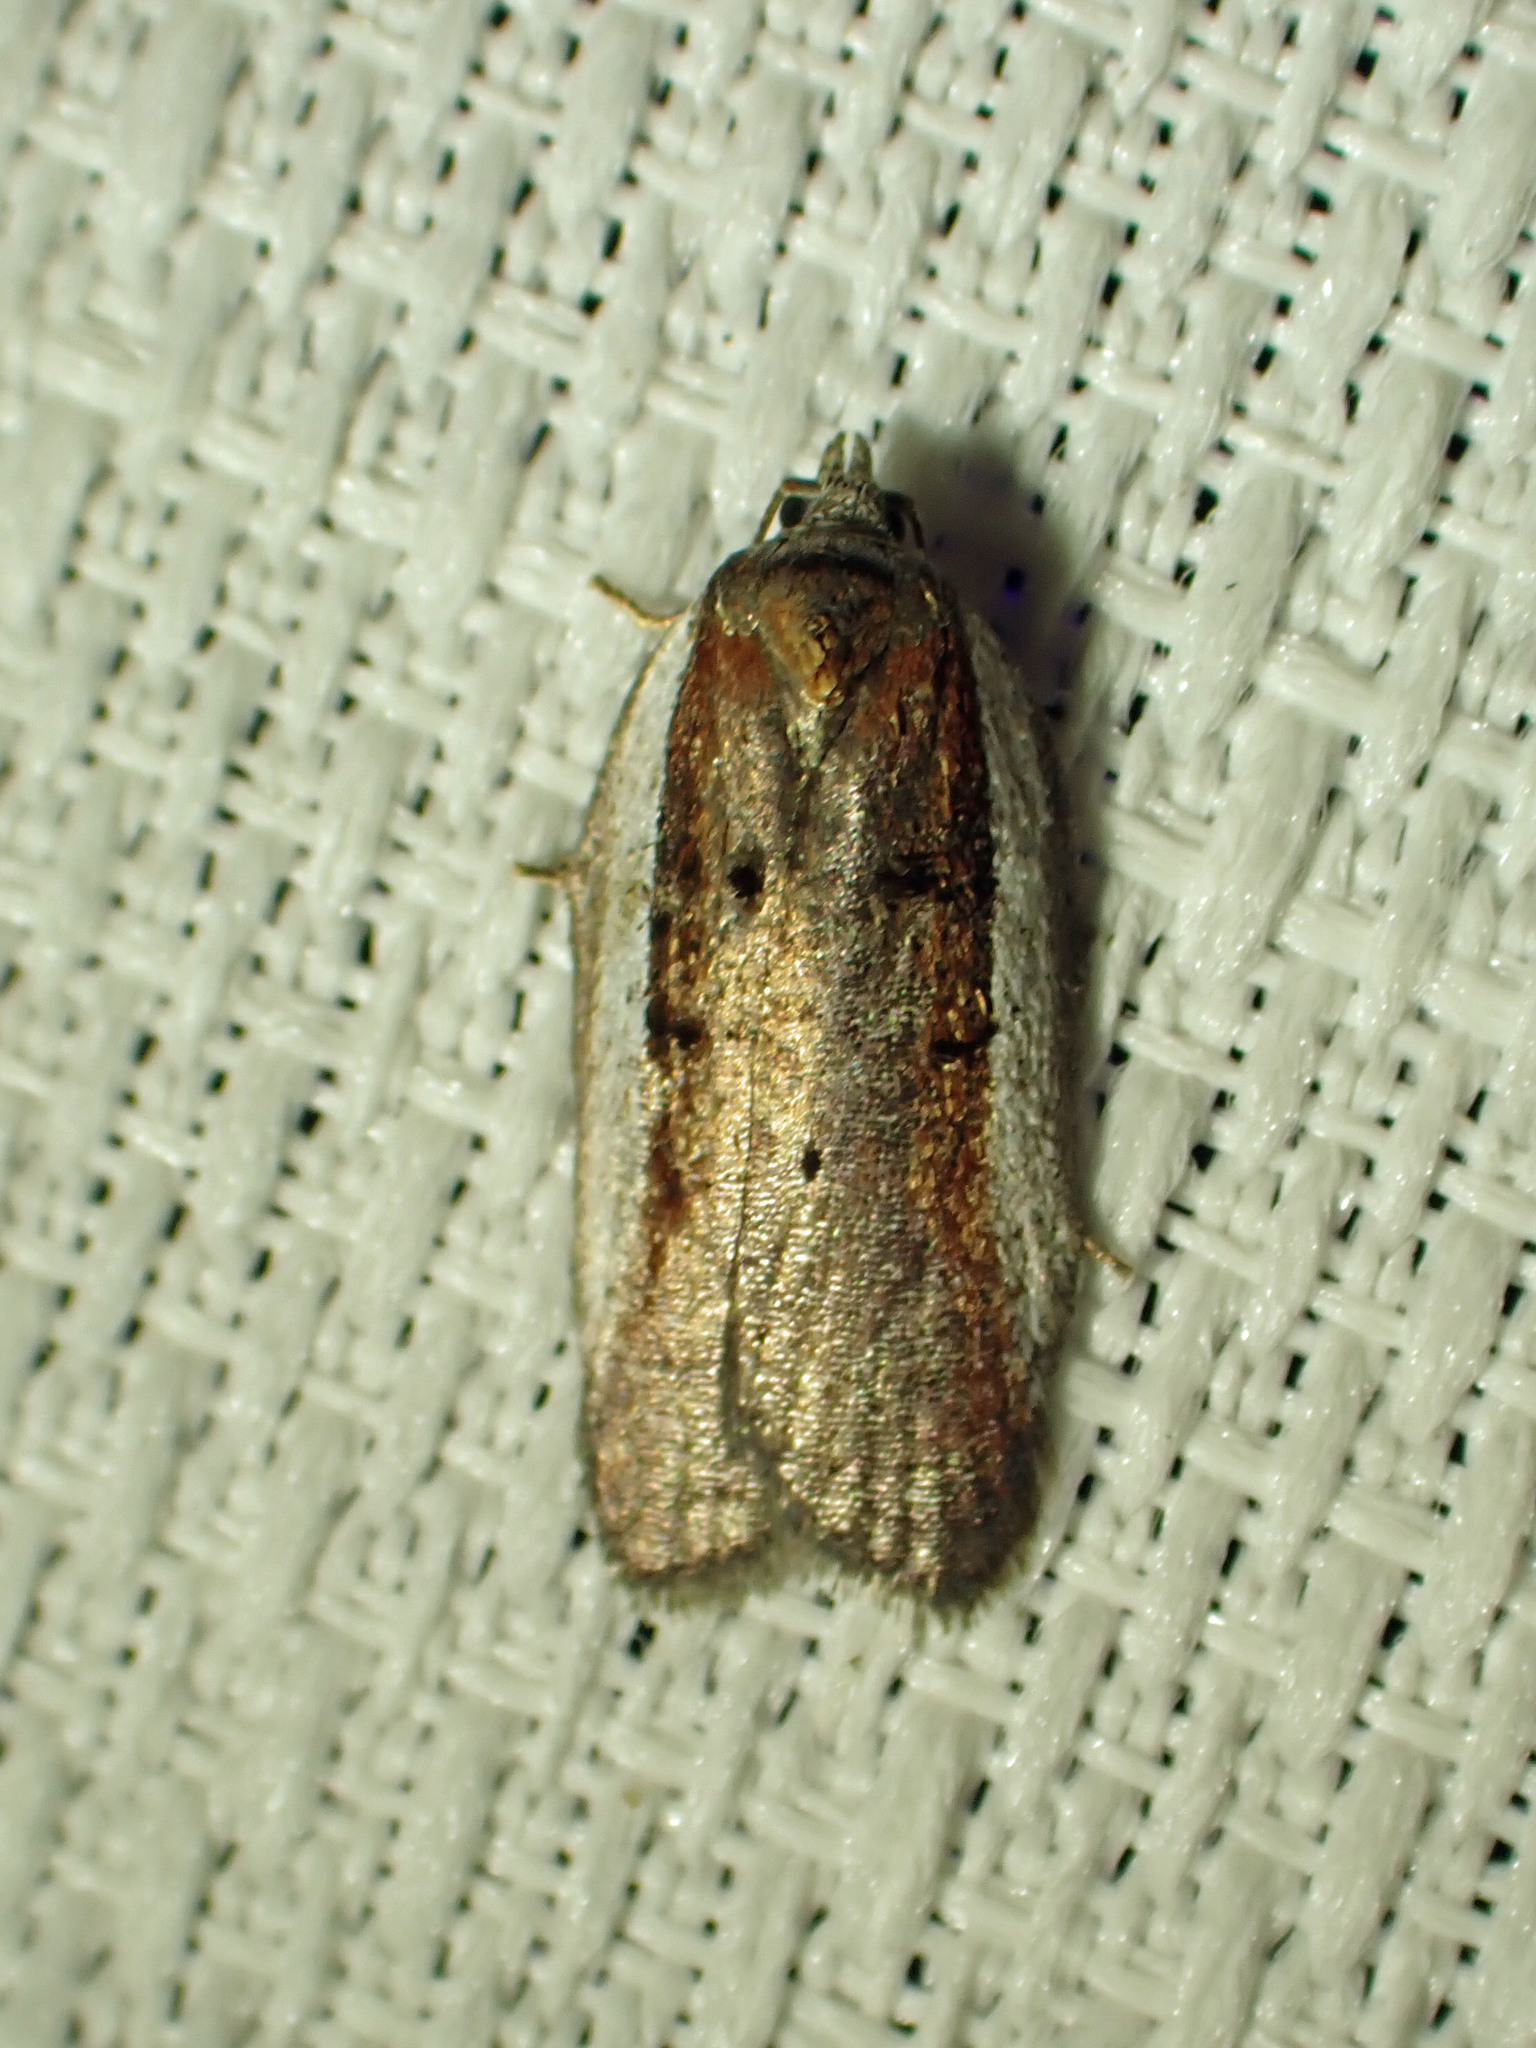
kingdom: Animalia
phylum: Arthropoda
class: Insecta
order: Lepidoptera
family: Tortricidae
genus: Acleris
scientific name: Acleris celiana
